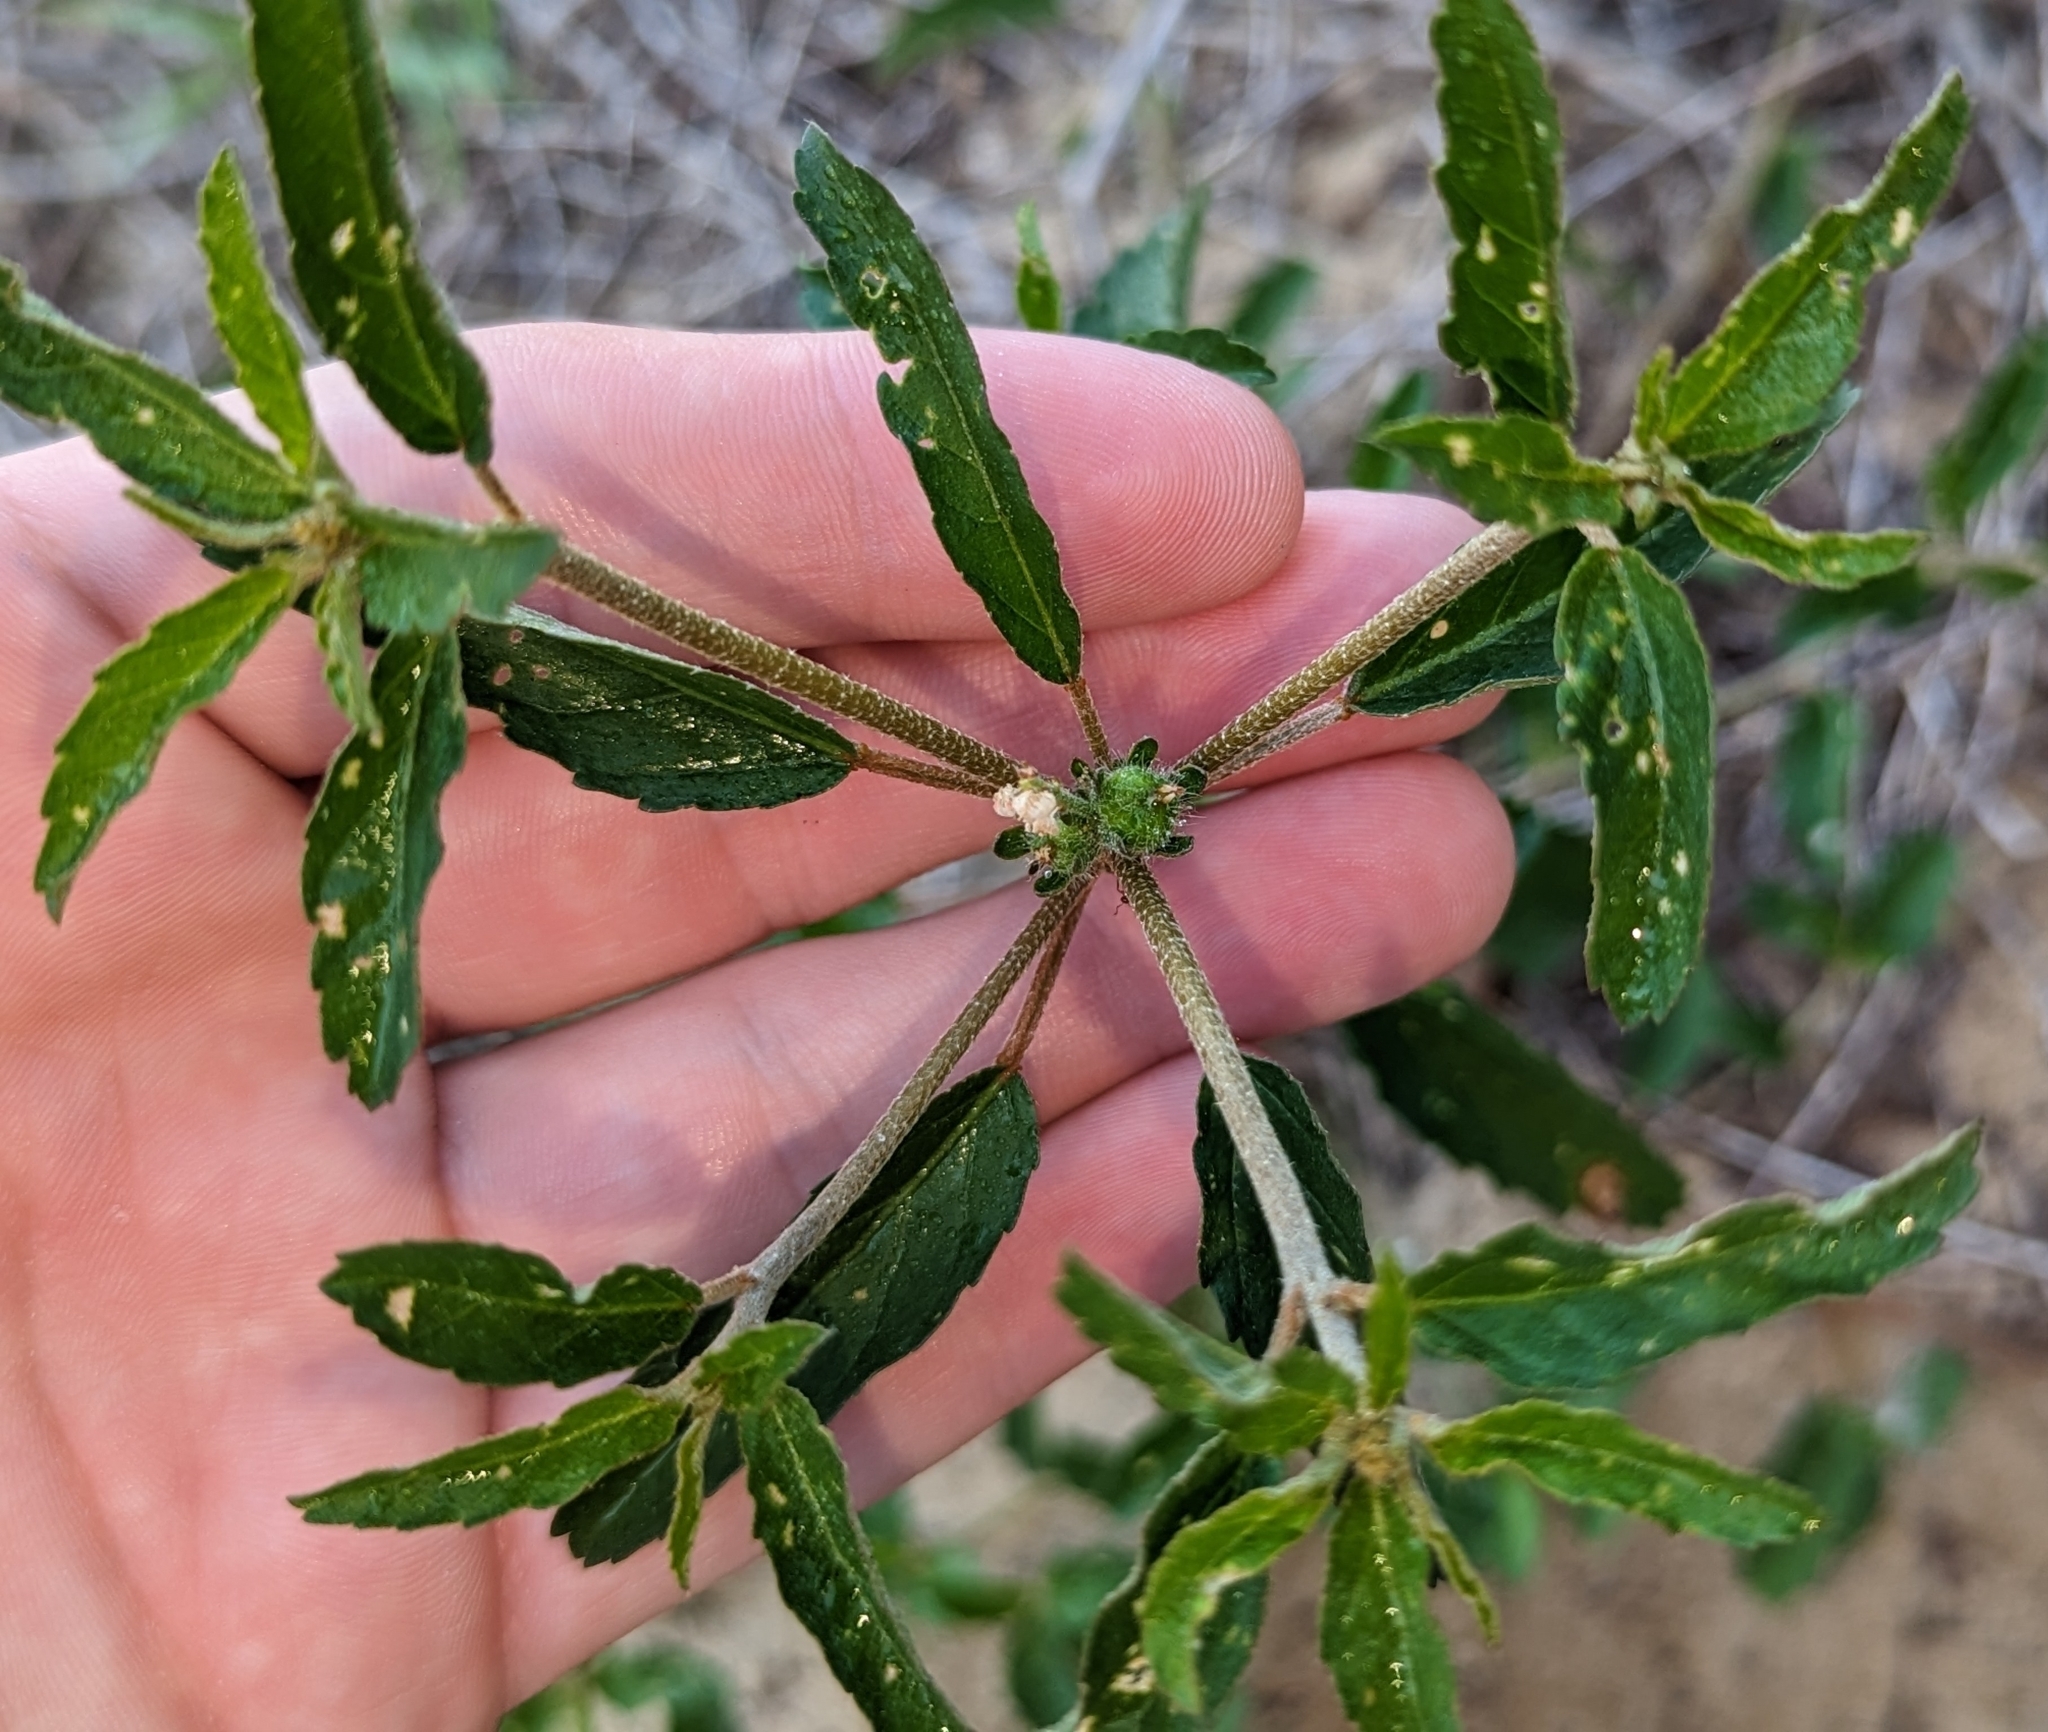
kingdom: Plantae
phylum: Tracheophyta
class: Magnoliopsida
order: Malpighiales
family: Euphorbiaceae
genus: Croton
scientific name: Croton glandulosus
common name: Tropic croton
